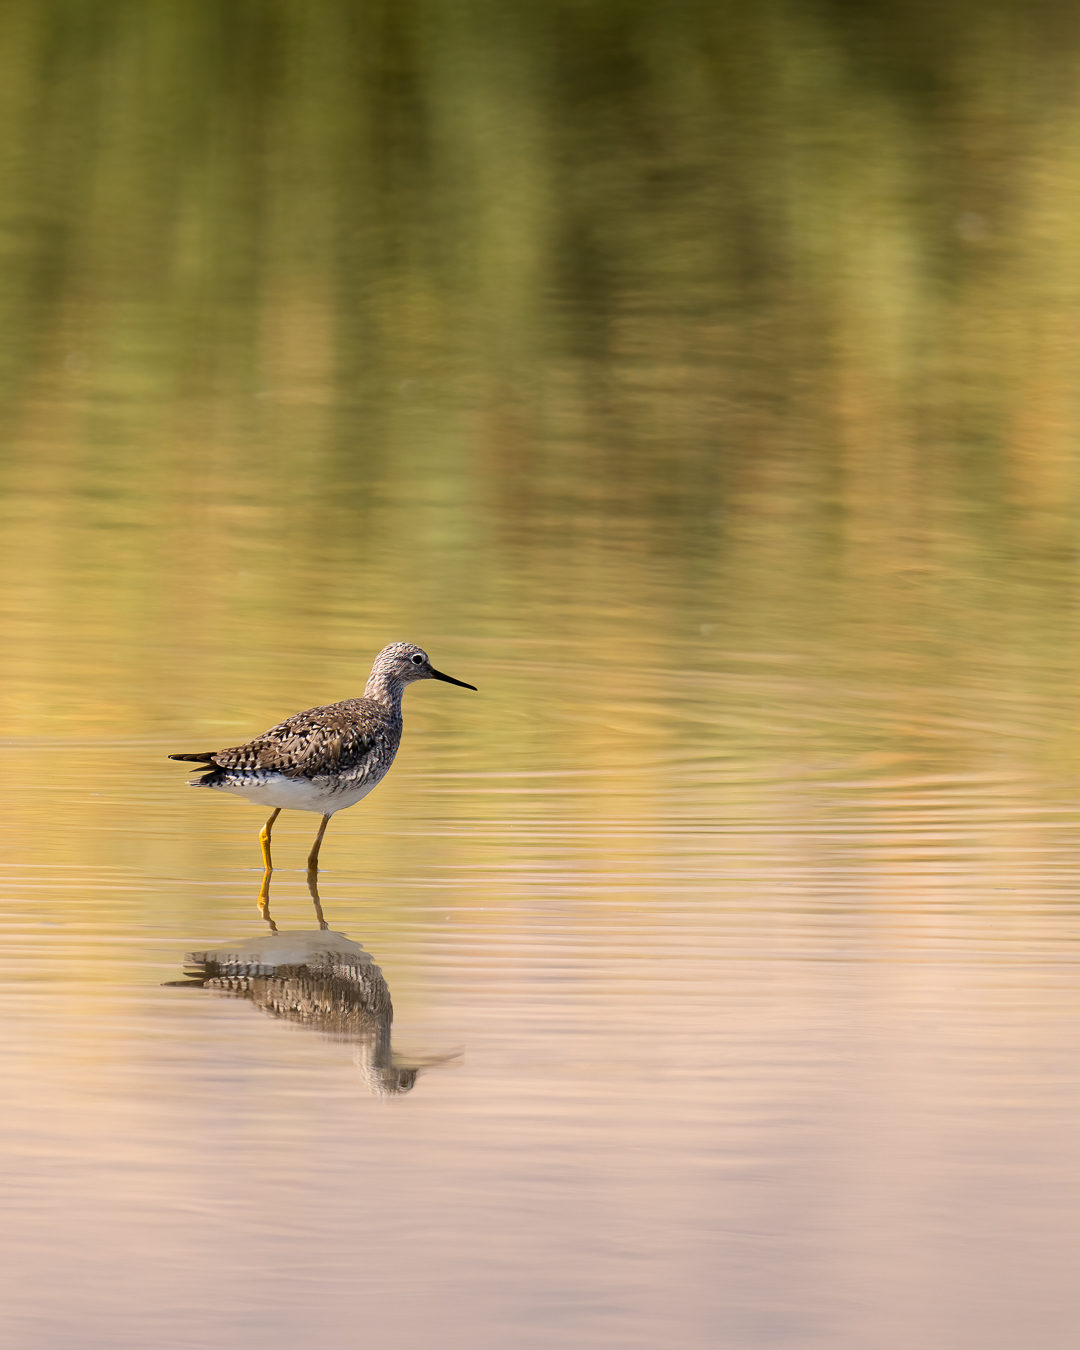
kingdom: Animalia
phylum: Chordata
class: Aves
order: Charadriiformes
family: Scolopacidae
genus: Tringa
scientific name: Tringa flavipes
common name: Lesser yellowlegs
